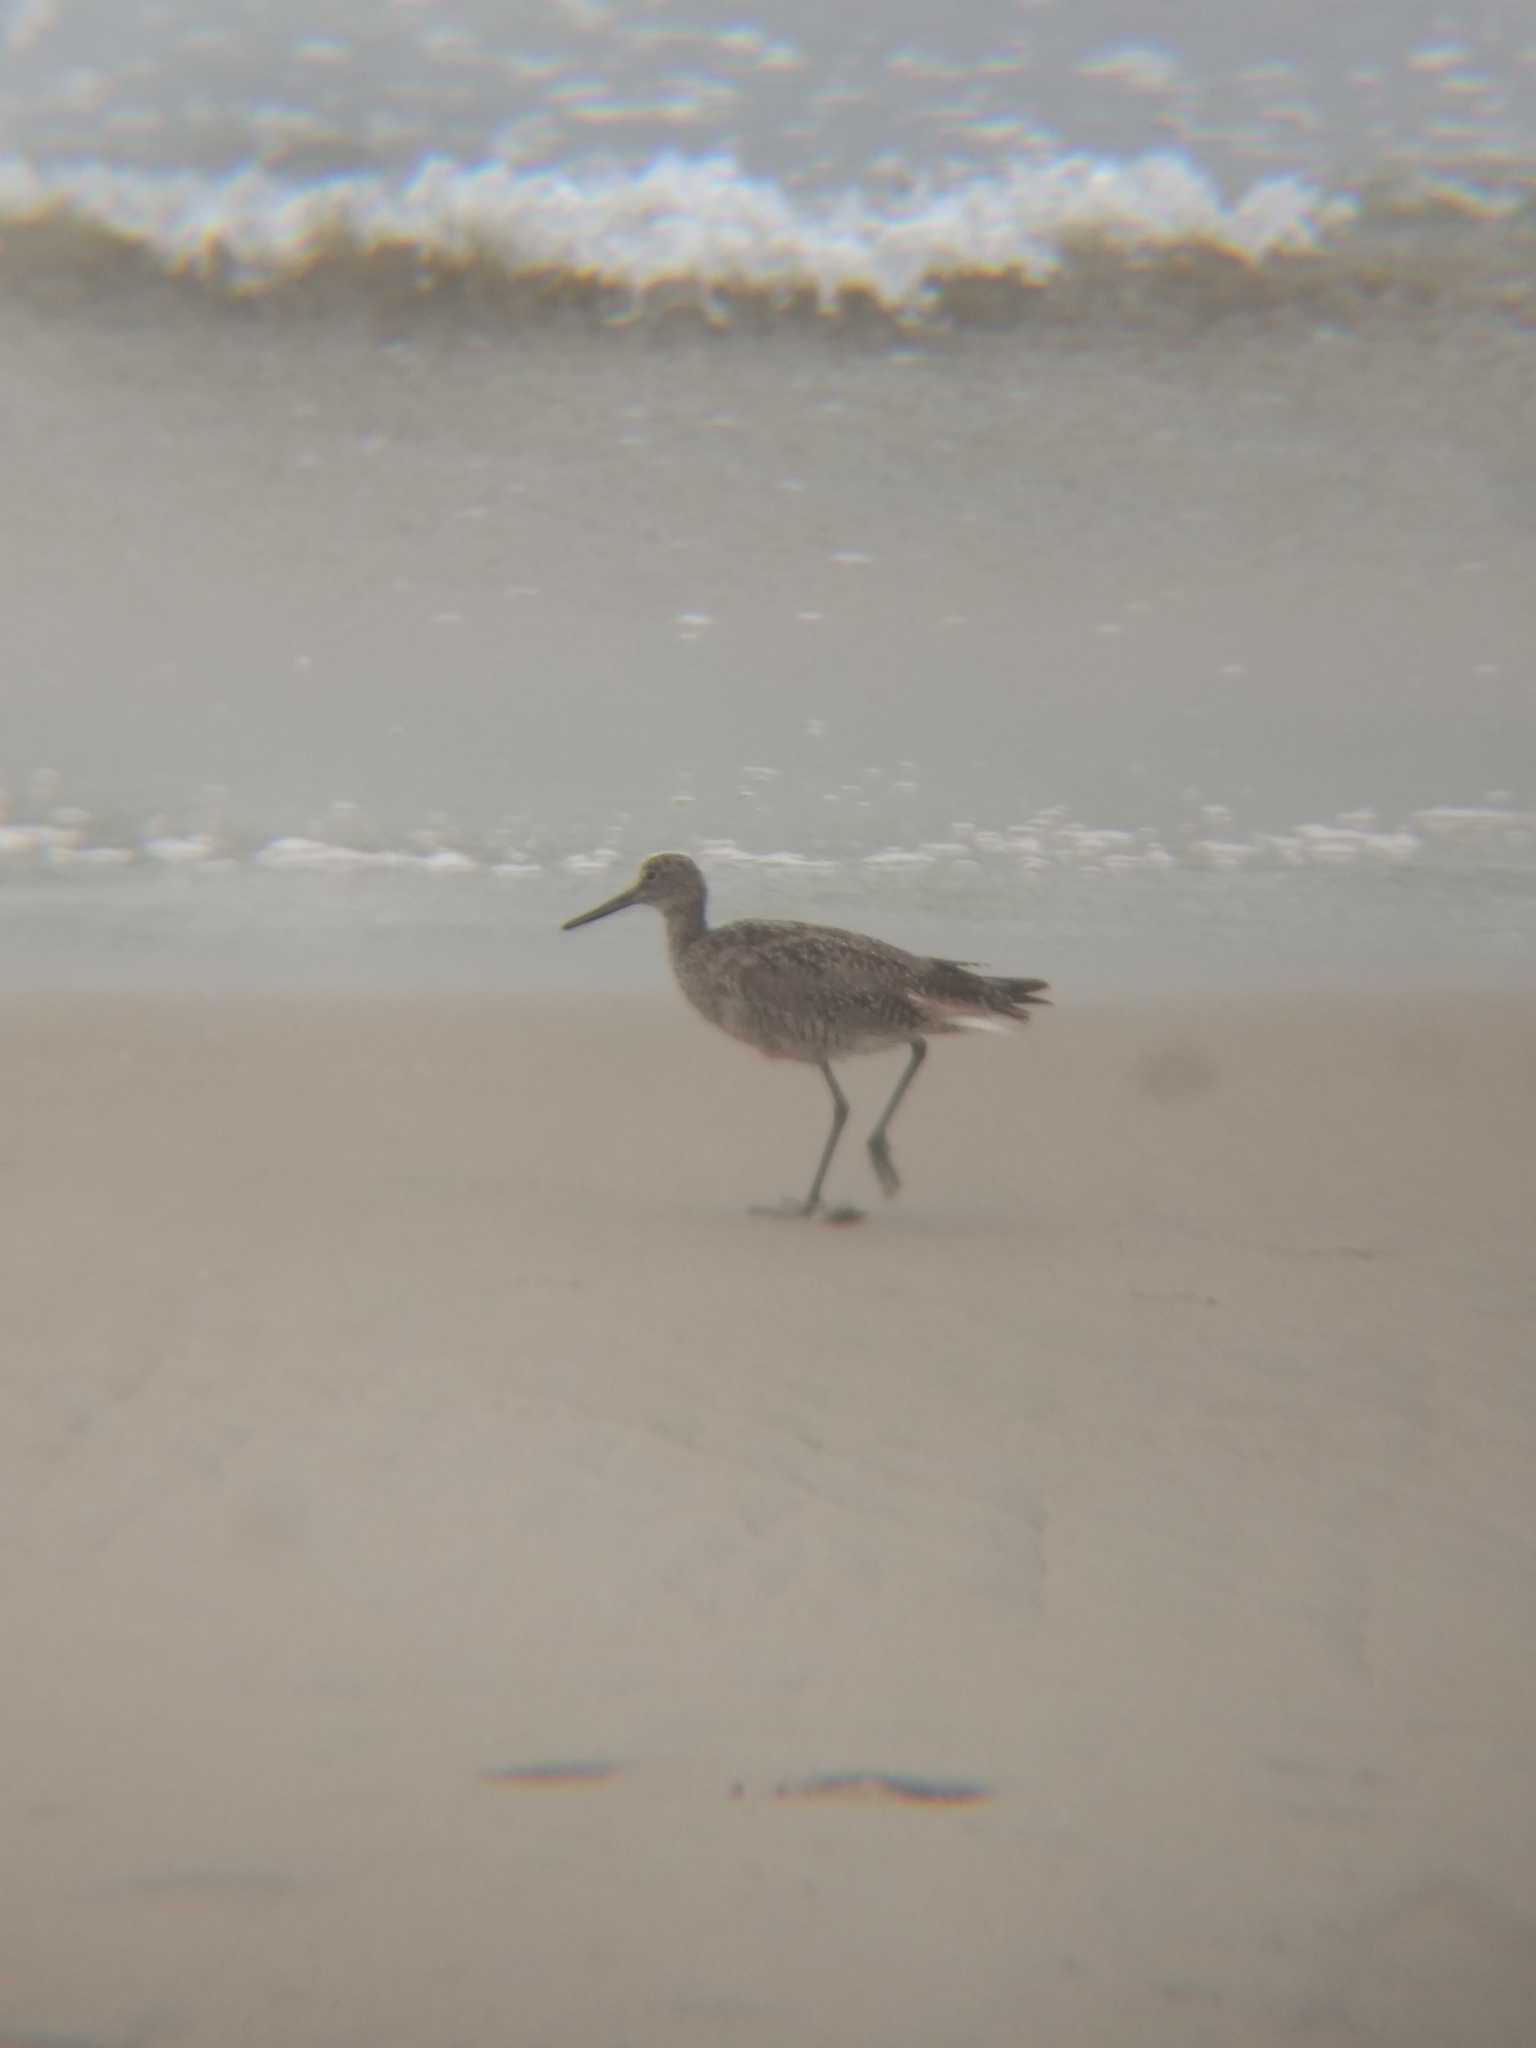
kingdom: Animalia
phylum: Chordata
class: Aves
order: Charadriiformes
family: Scolopacidae
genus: Tringa
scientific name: Tringa semipalmata
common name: Willet
